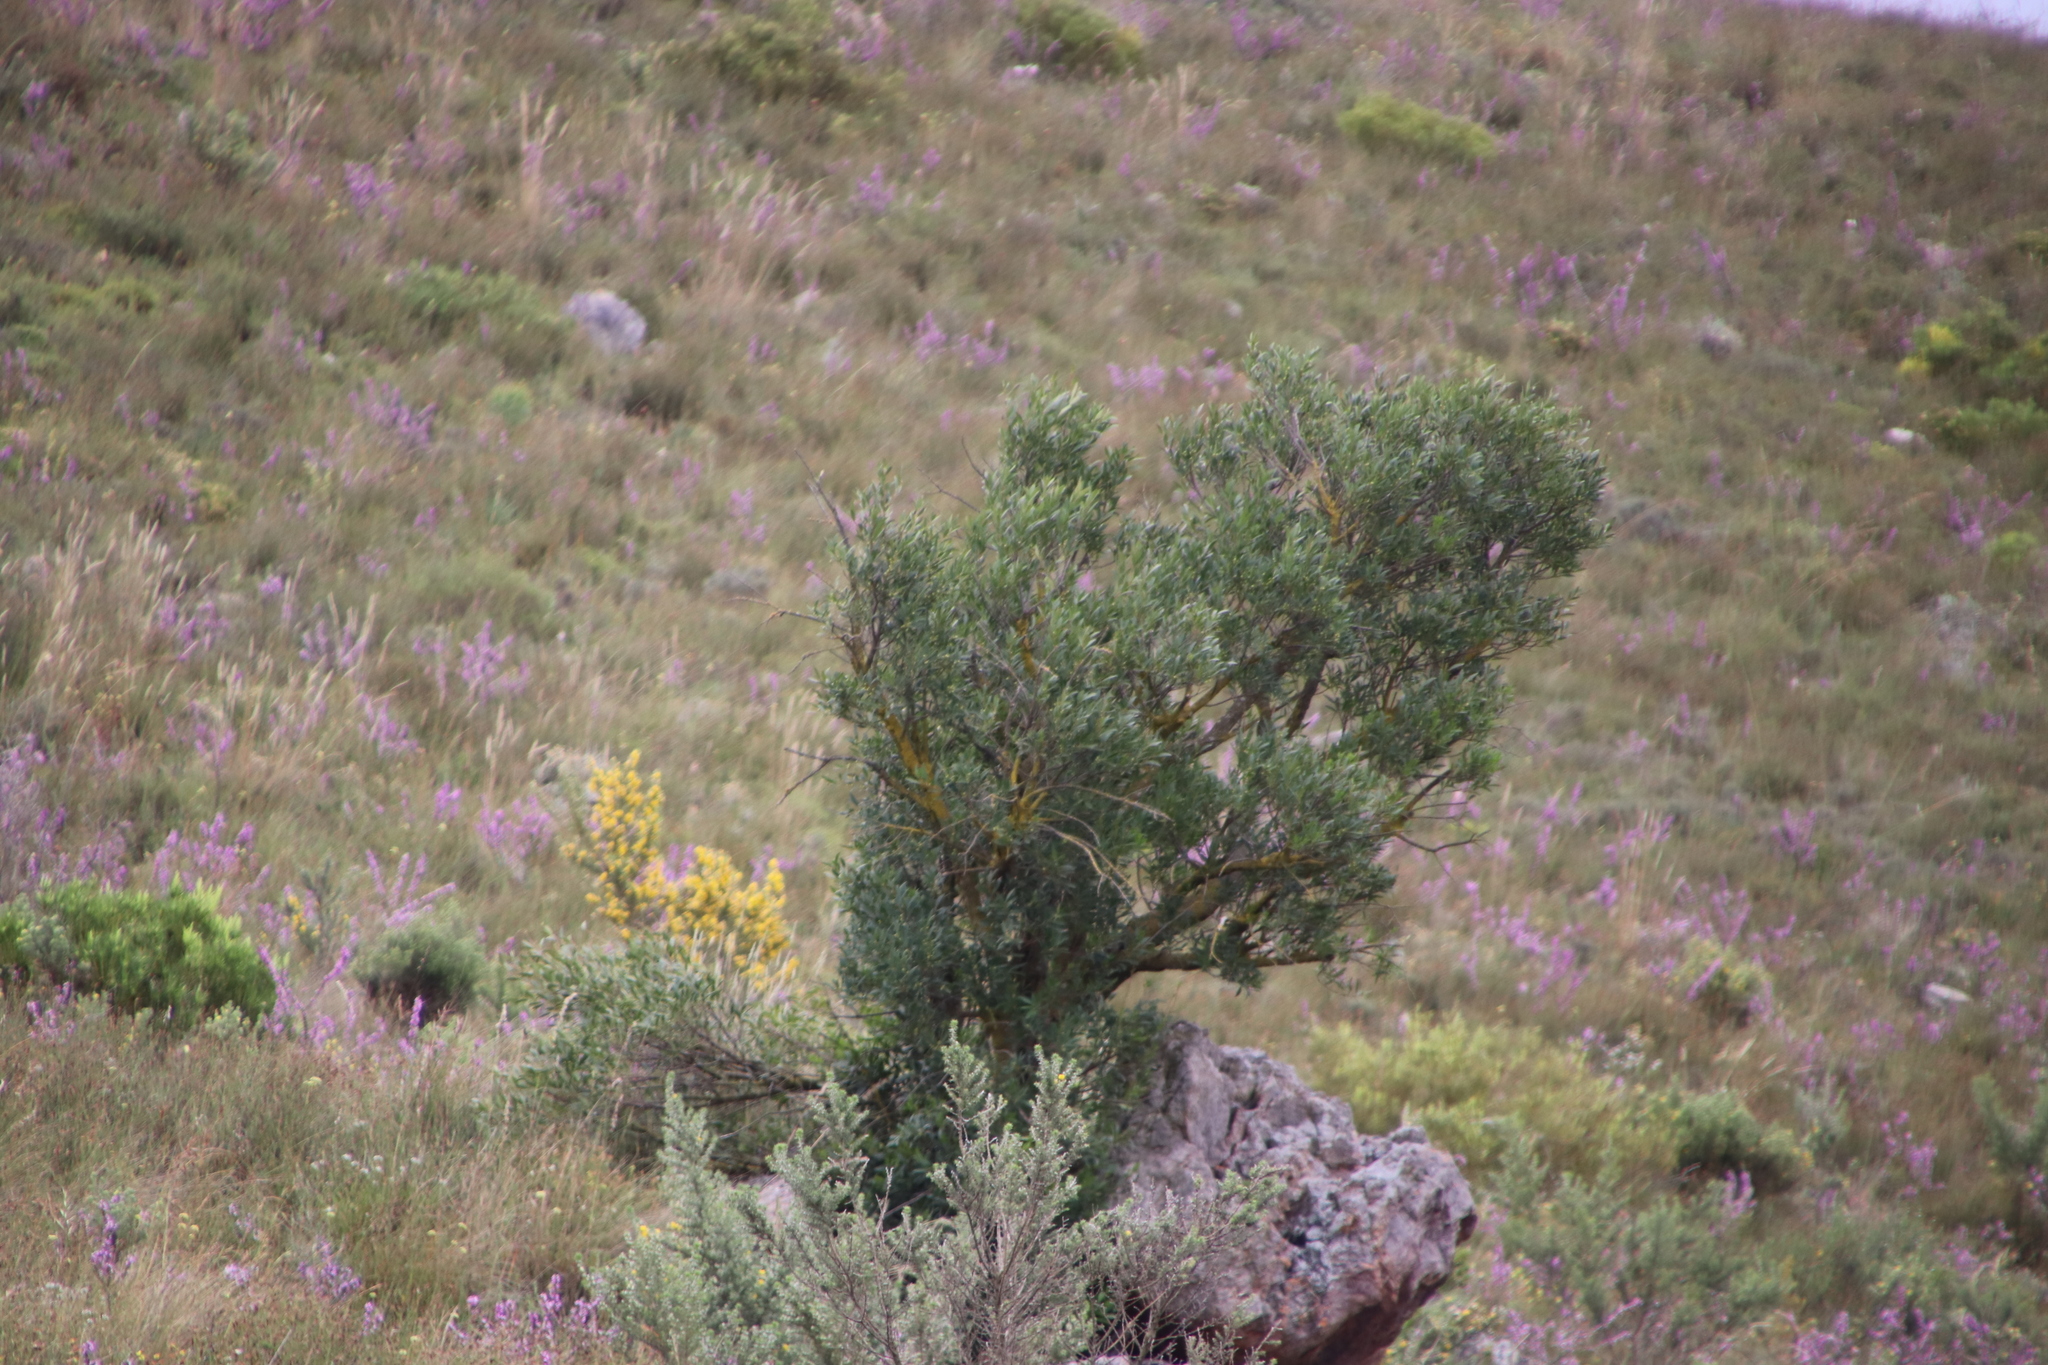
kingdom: Plantae
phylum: Tracheophyta
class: Magnoliopsida
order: Celastrales
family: Celastraceae
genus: Gymnosporia
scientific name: Gymnosporia laurina
